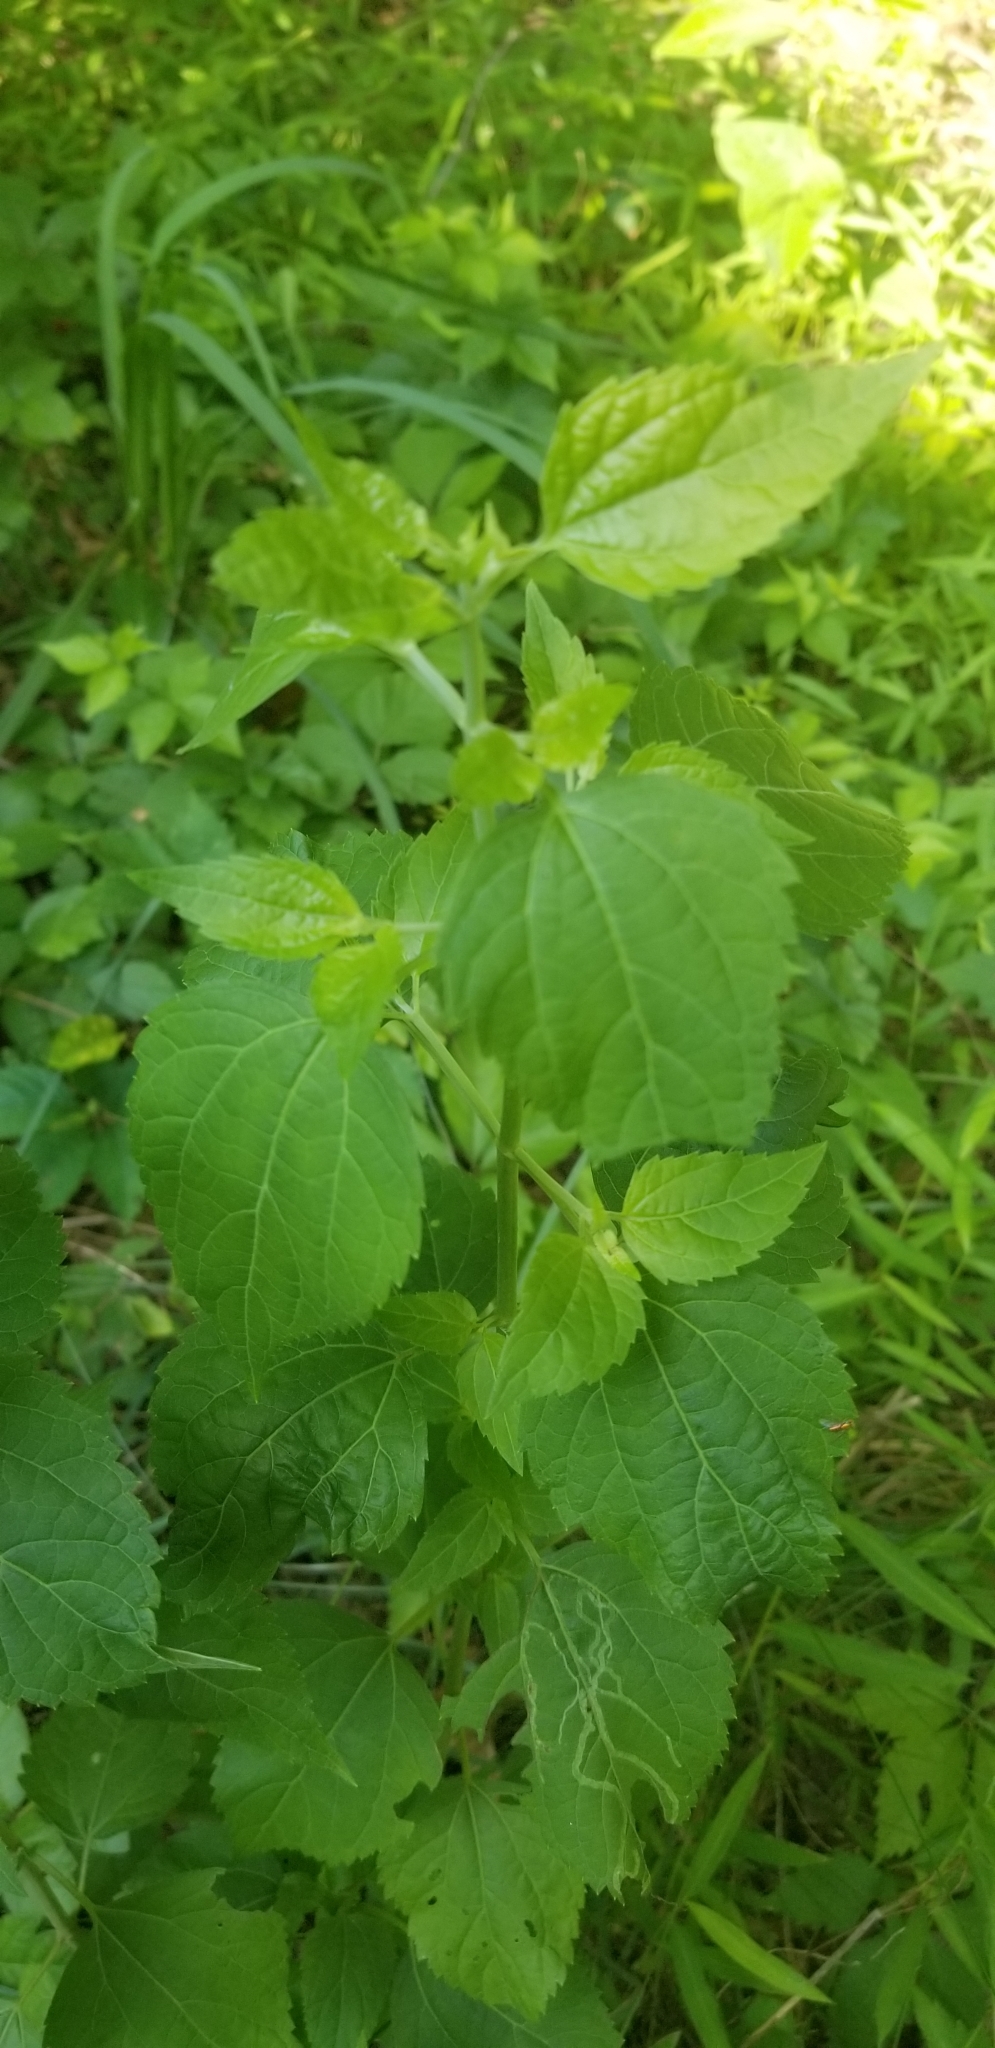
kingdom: Plantae
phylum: Tracheophyta
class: Magnoliopsida
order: Asterales
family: Asteraceae
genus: Ageratina
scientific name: Ageratina altissima
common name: White snakeroot
